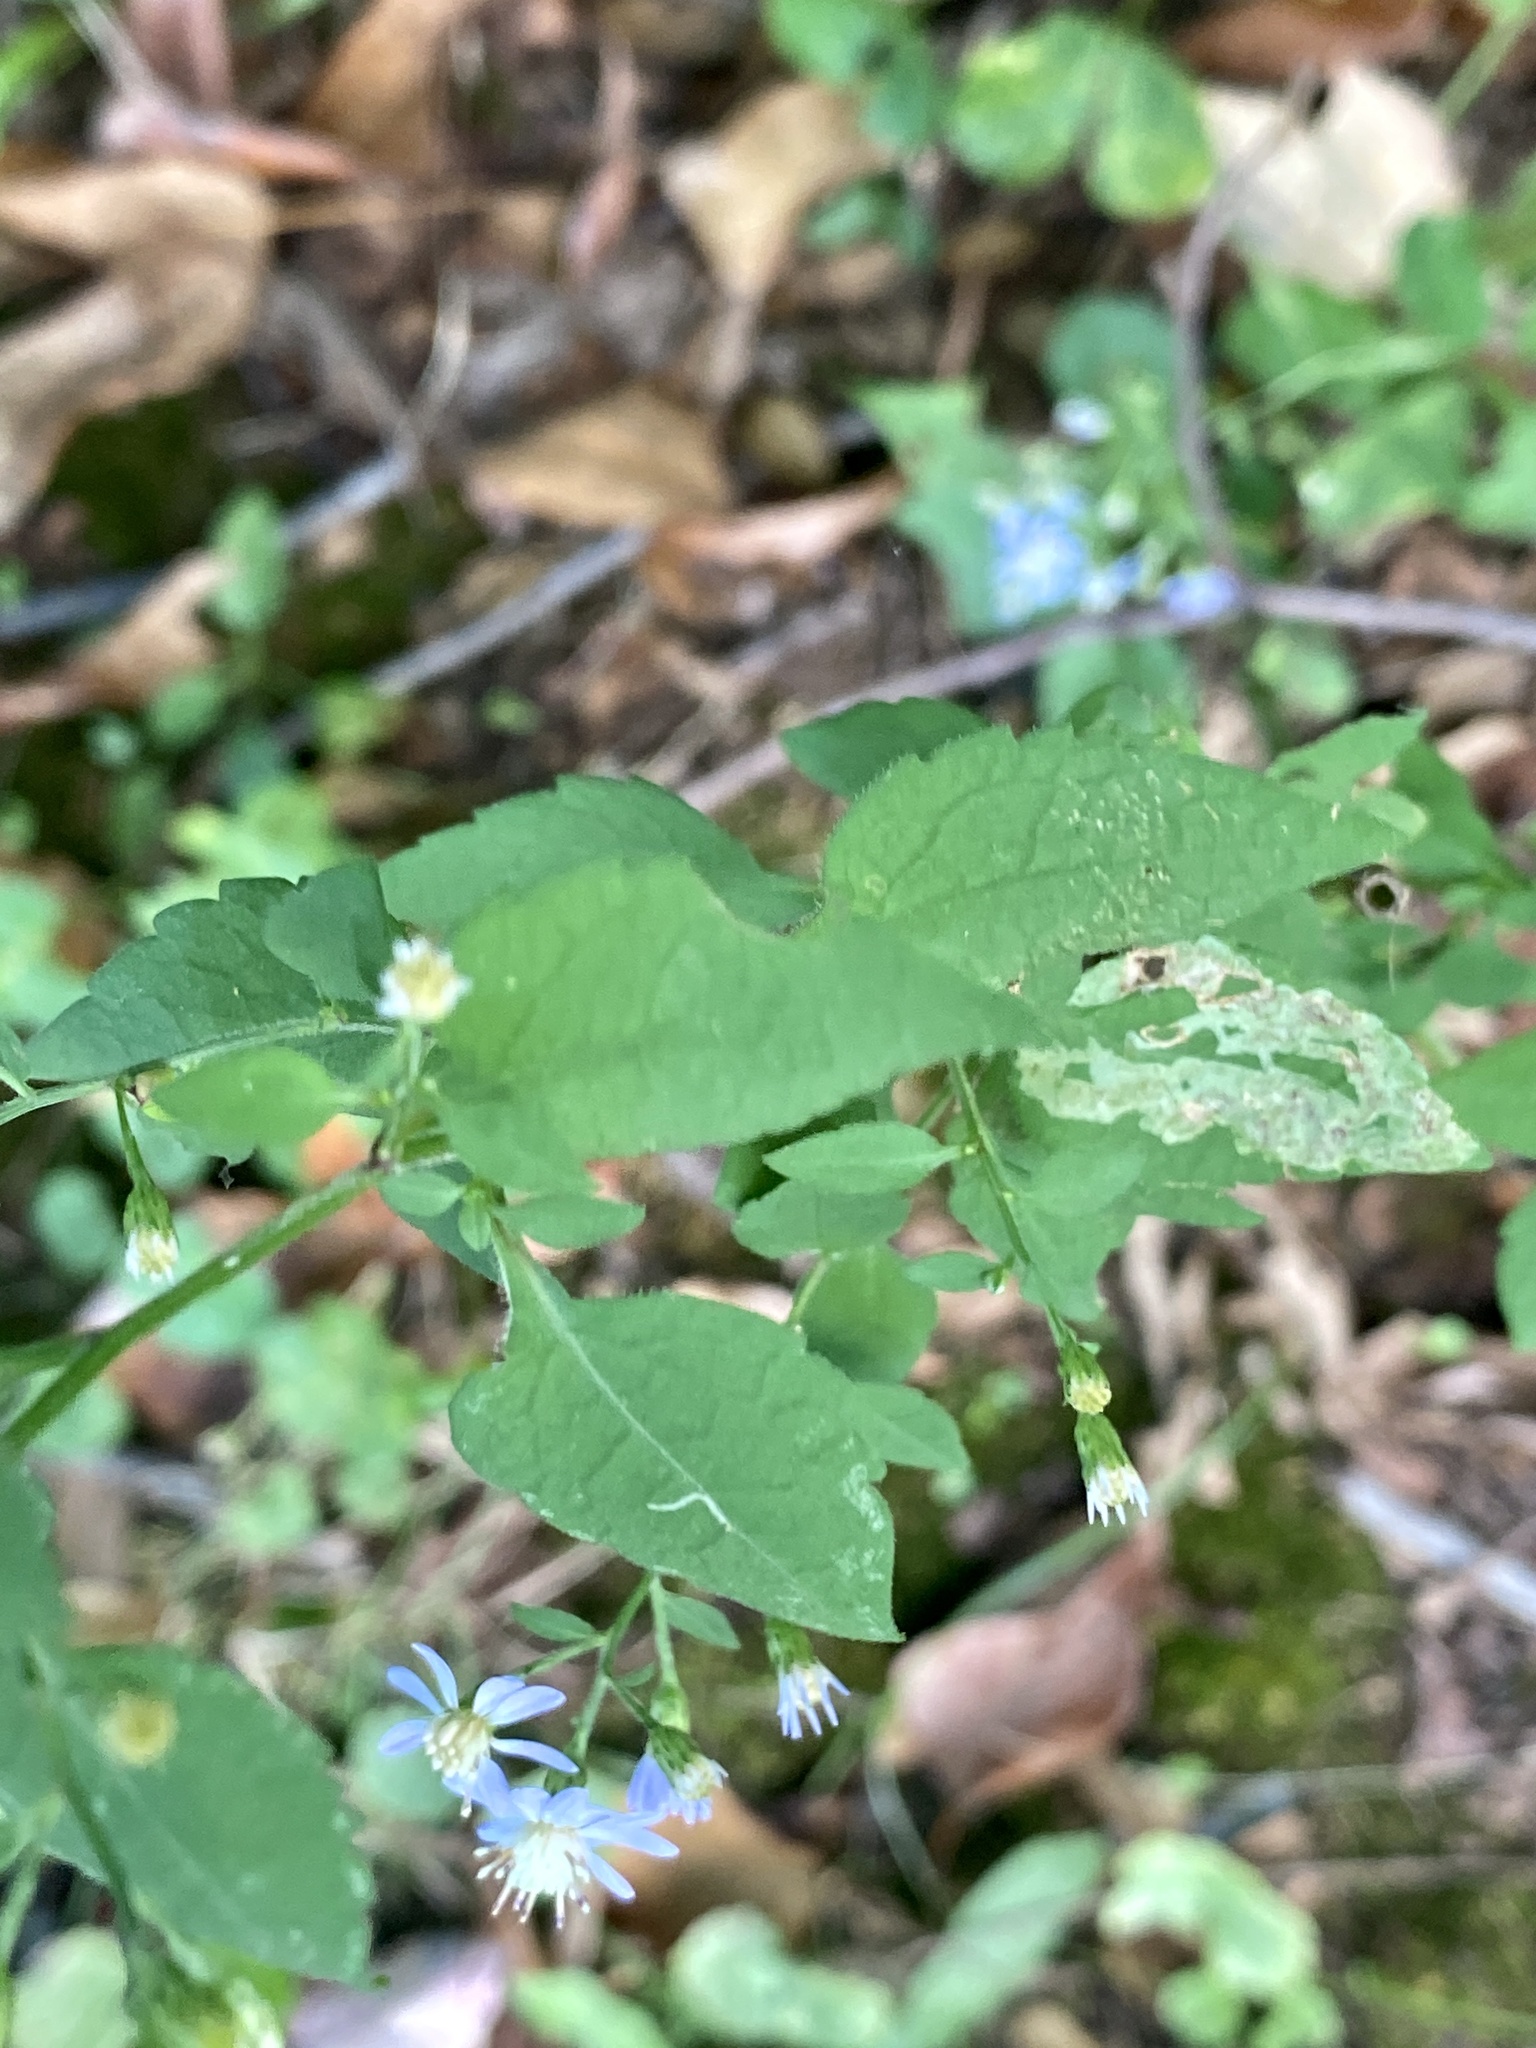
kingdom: Plantae
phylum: Tracheophyta
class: Magnoliopsida
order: Asterales
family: Asteraceae
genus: Symphyotrichum
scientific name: Symphyotrichum cordifolium
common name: Beeweed
